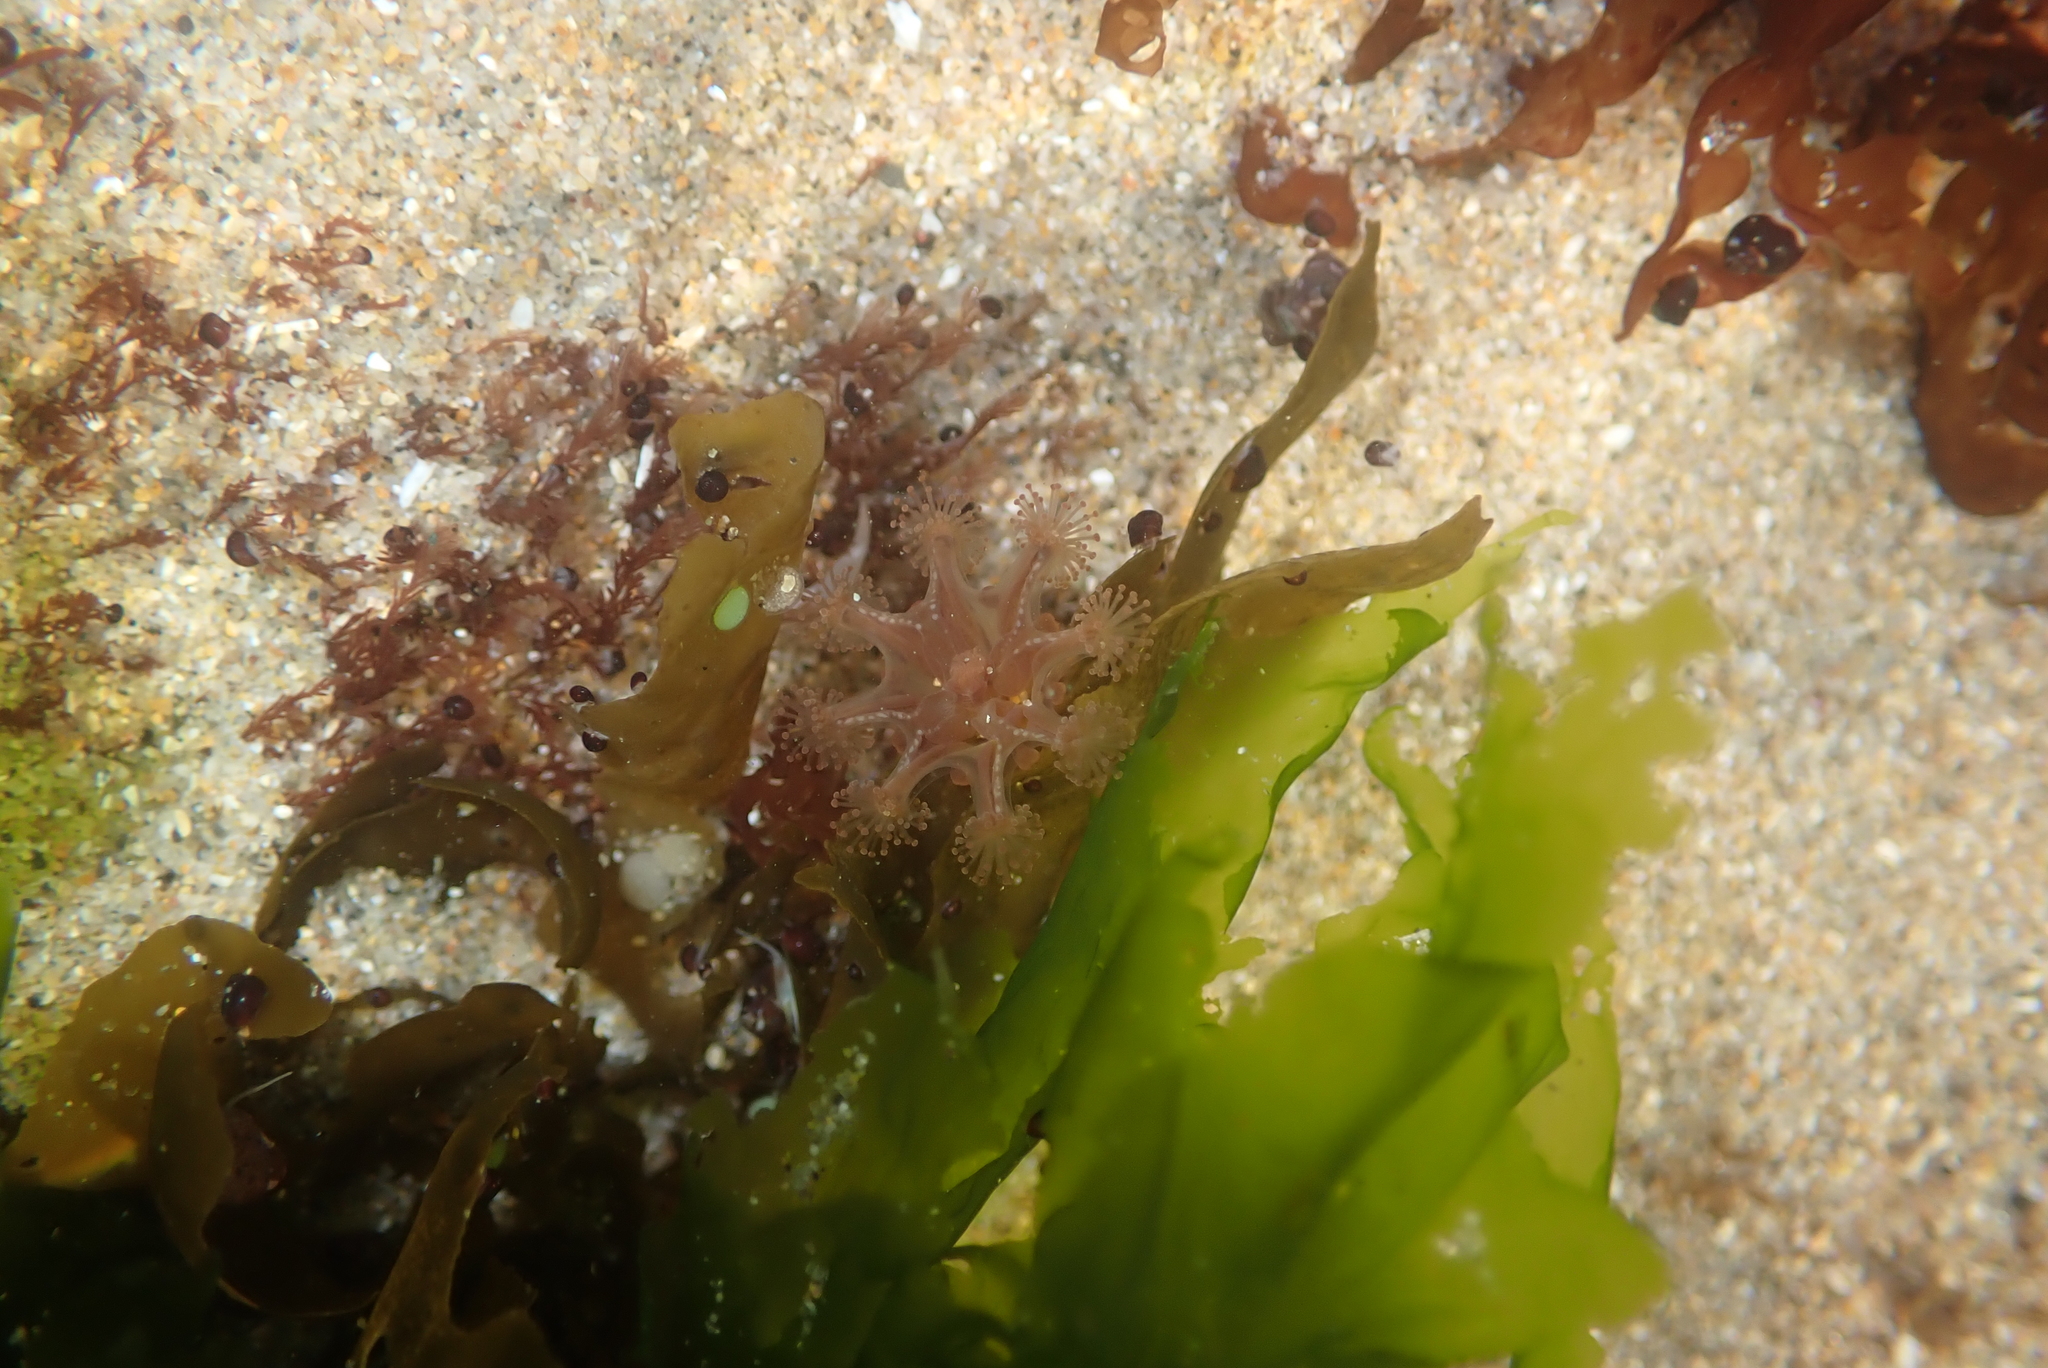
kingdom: Animalia
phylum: Cnidaria
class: Staurozoa
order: Stauromedusae
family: Haliclystidae
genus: Haliclystus
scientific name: Haliclystus sanjuanensis
